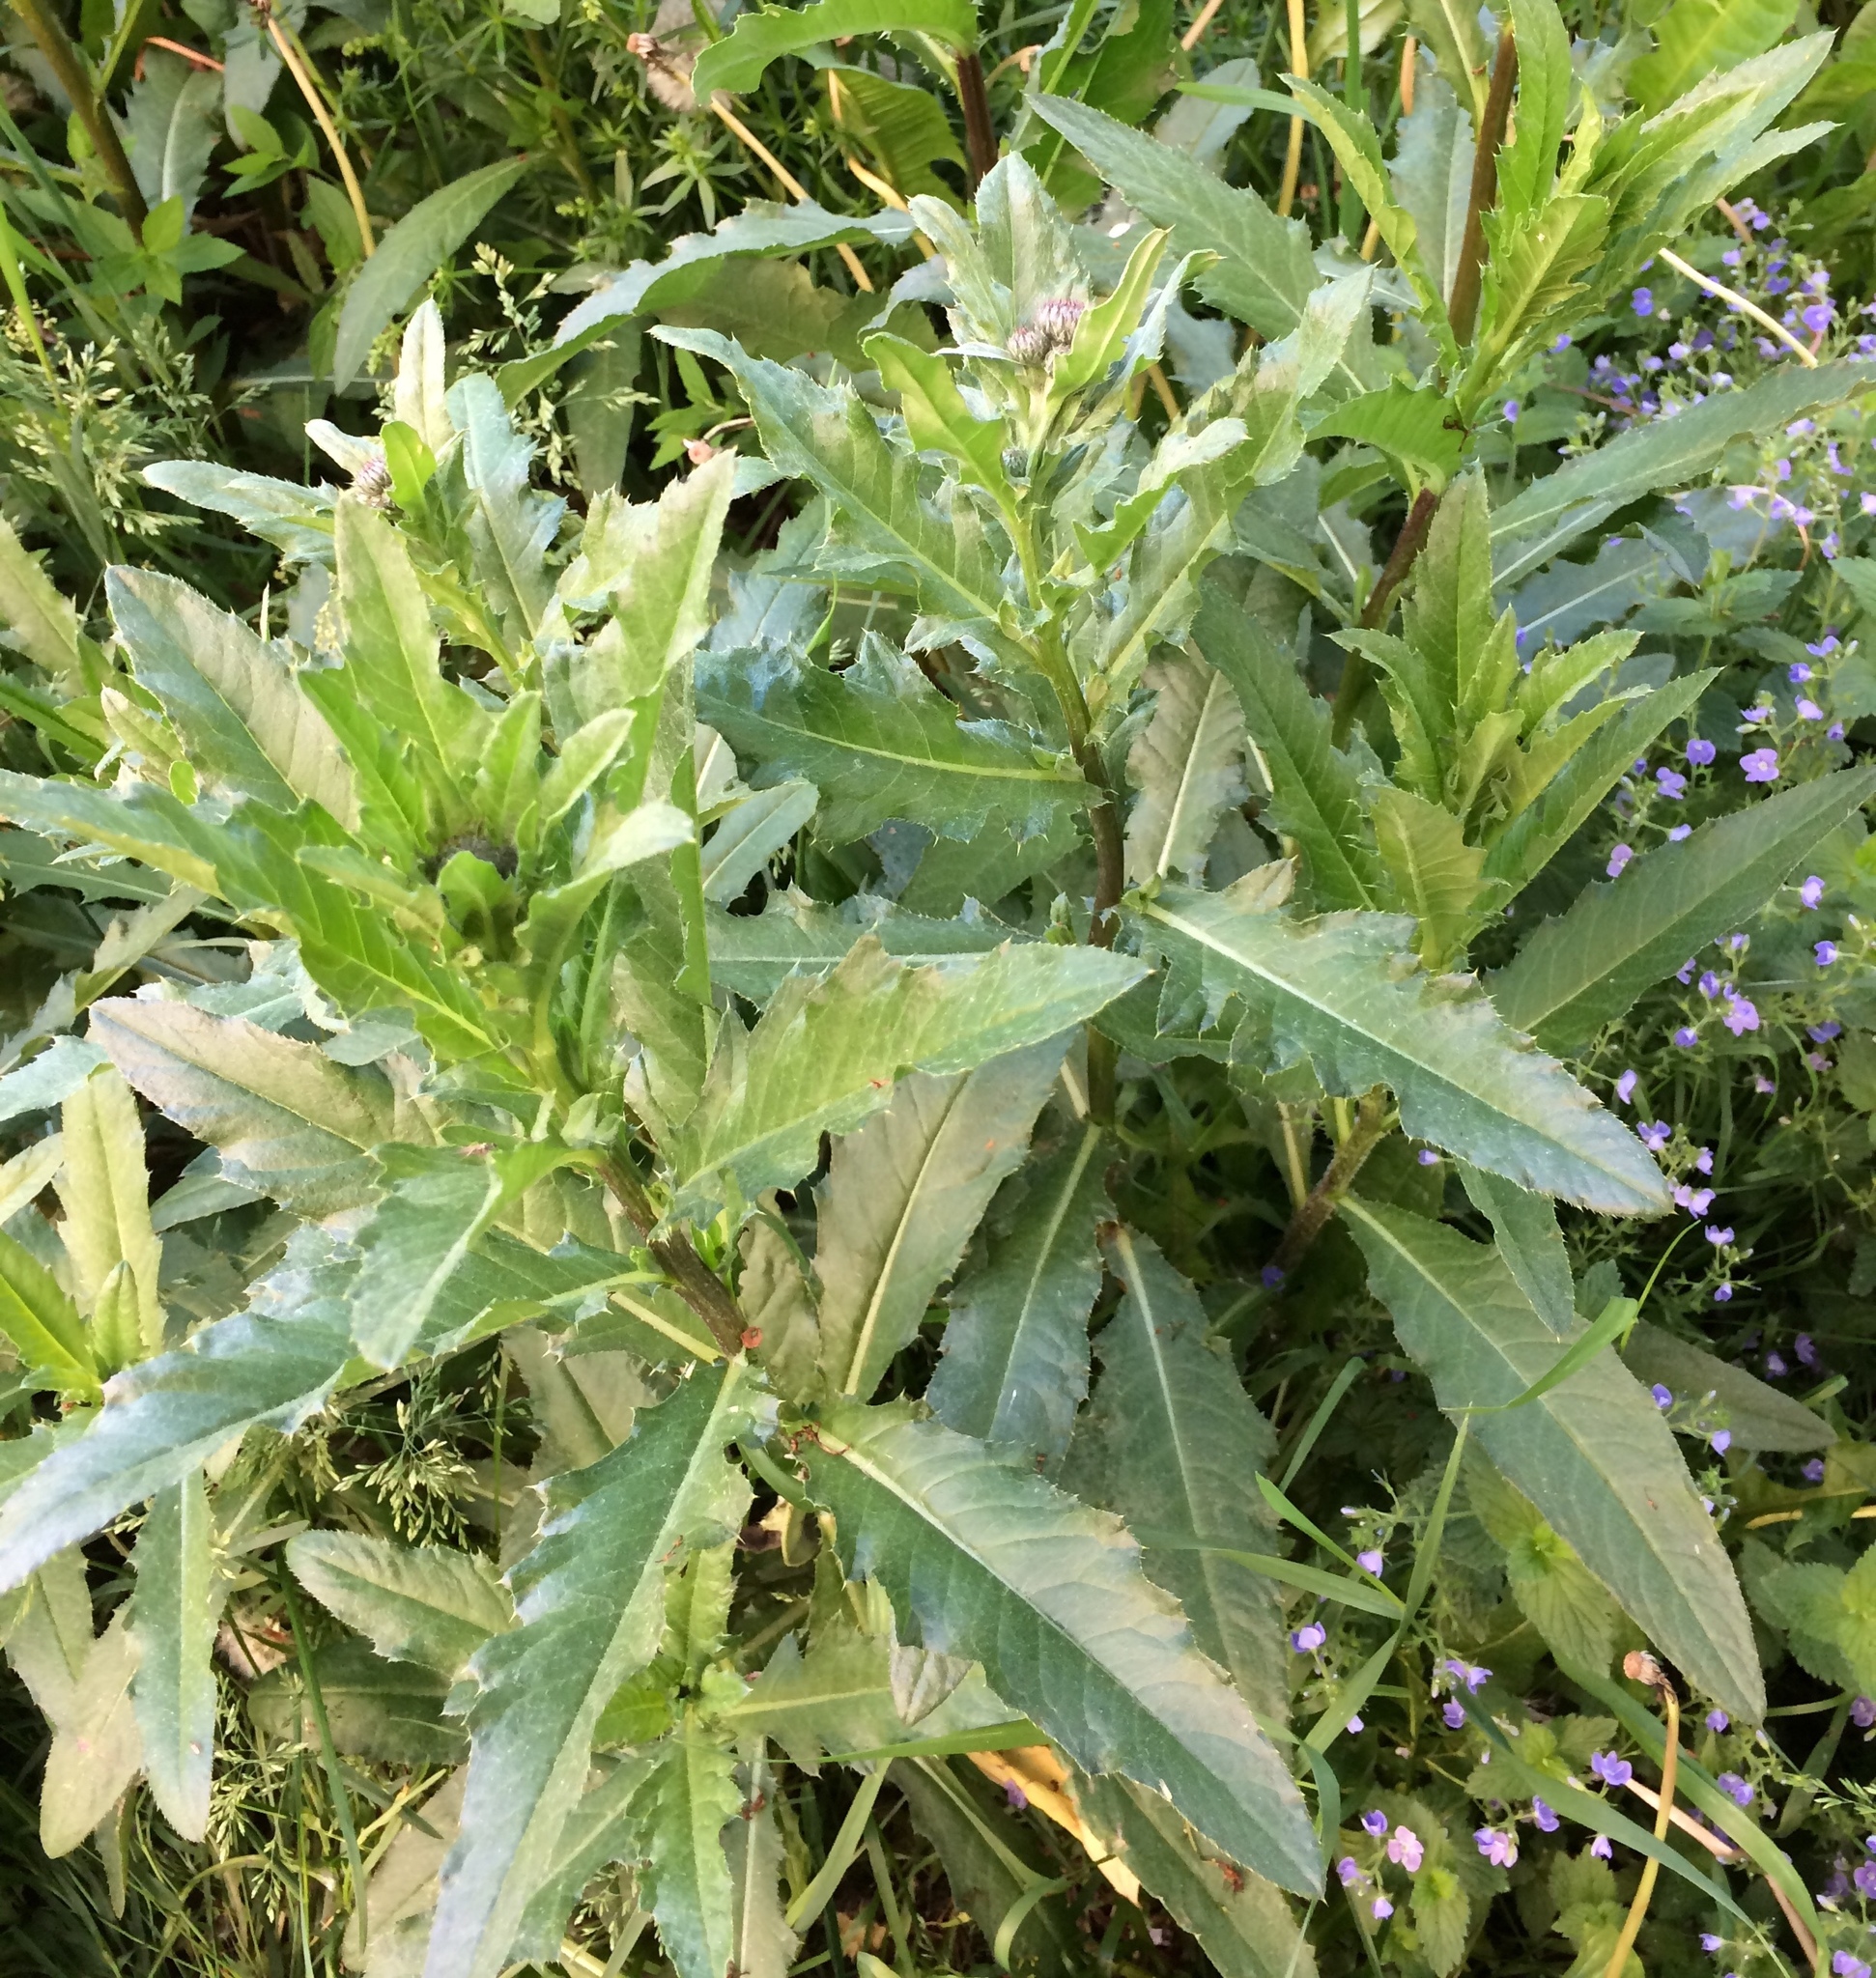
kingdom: Plantae
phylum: Tracheophyta
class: Magnoliopsida
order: Asterales
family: Asteraceae
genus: Cirsium
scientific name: Cirsium arvense
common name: Creeping thistle
